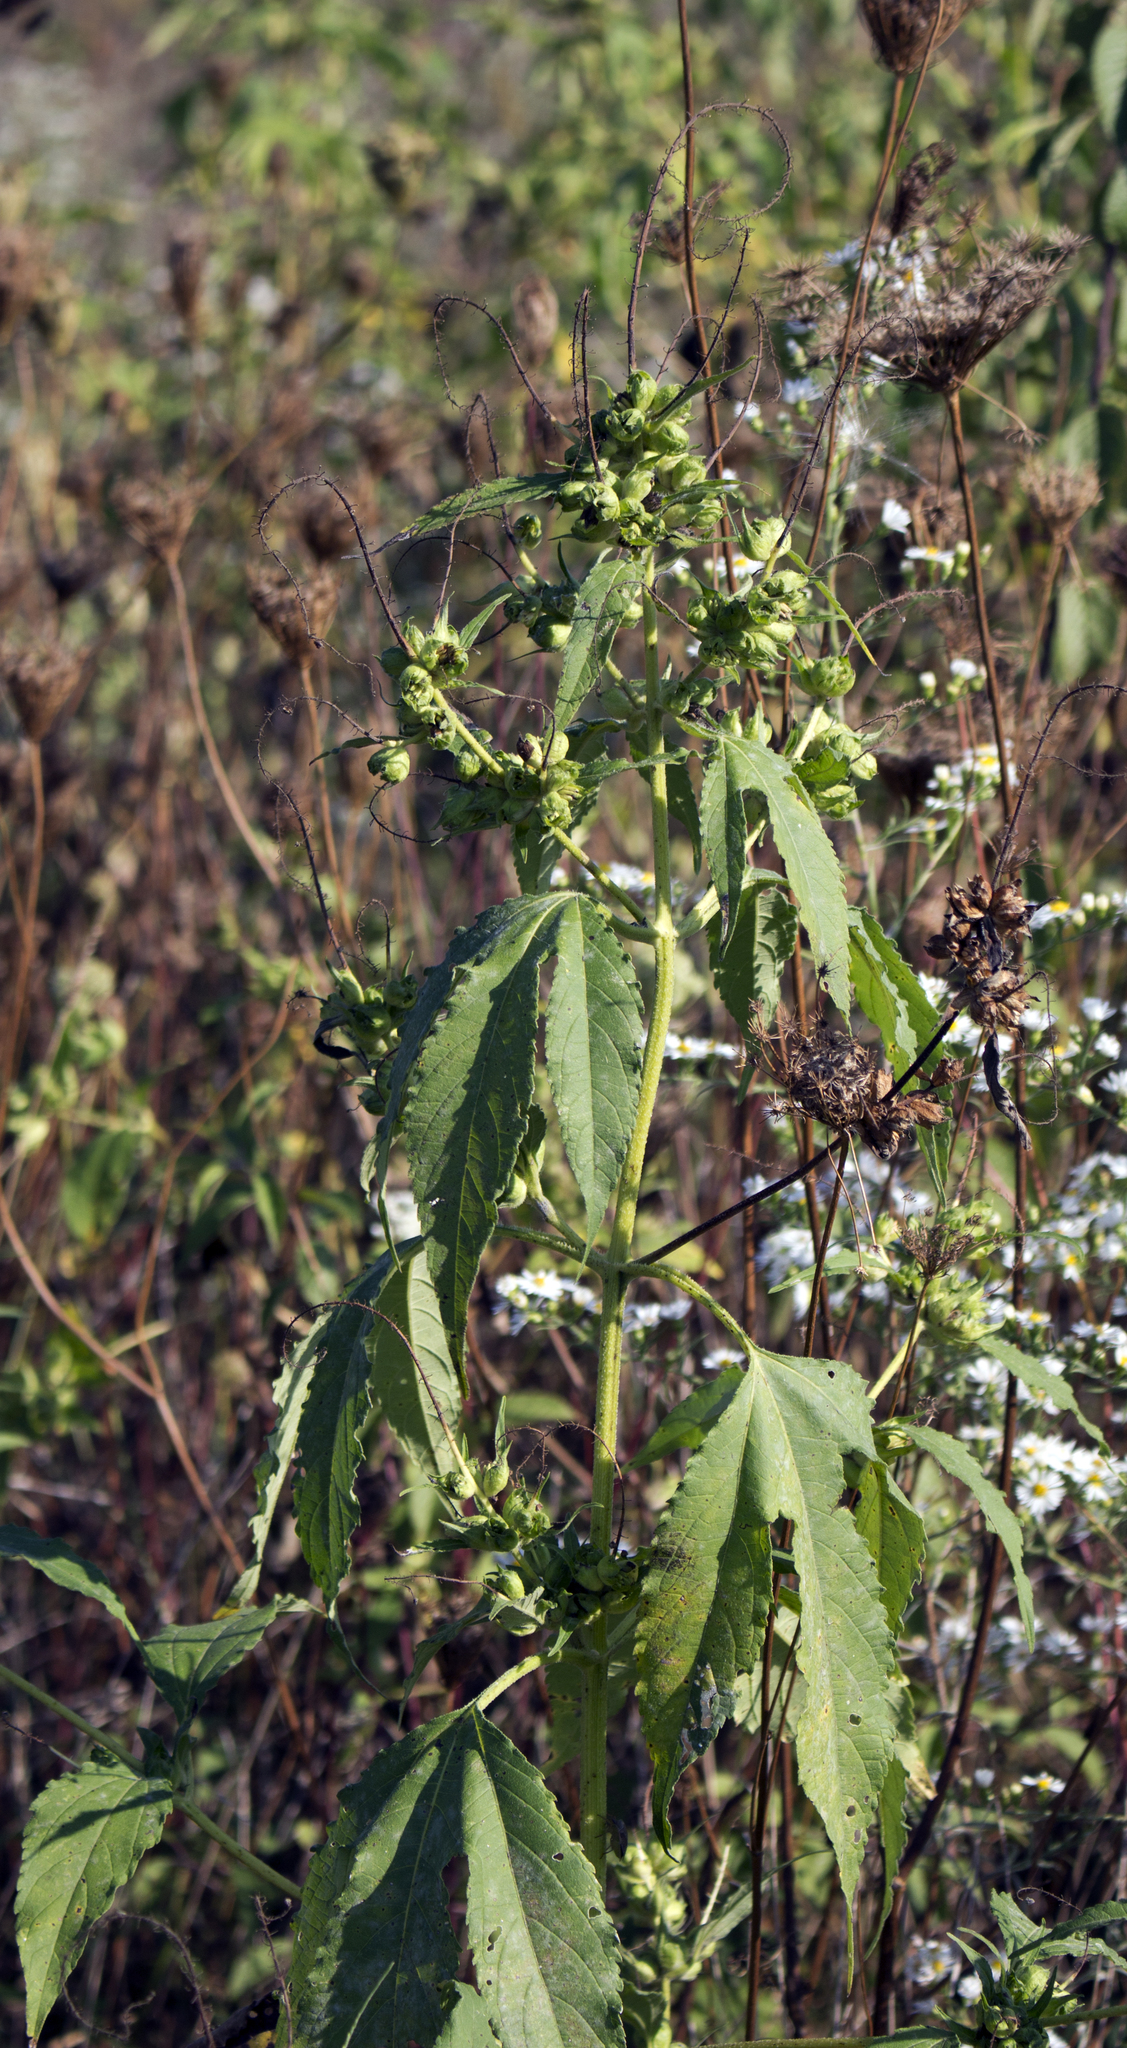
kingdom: Plantae
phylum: Tracheophyta
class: Magnoliopsida
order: Asterales
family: Asteraceae
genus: Ambrosia
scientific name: Ambrosia trifida
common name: Giant ragweed
